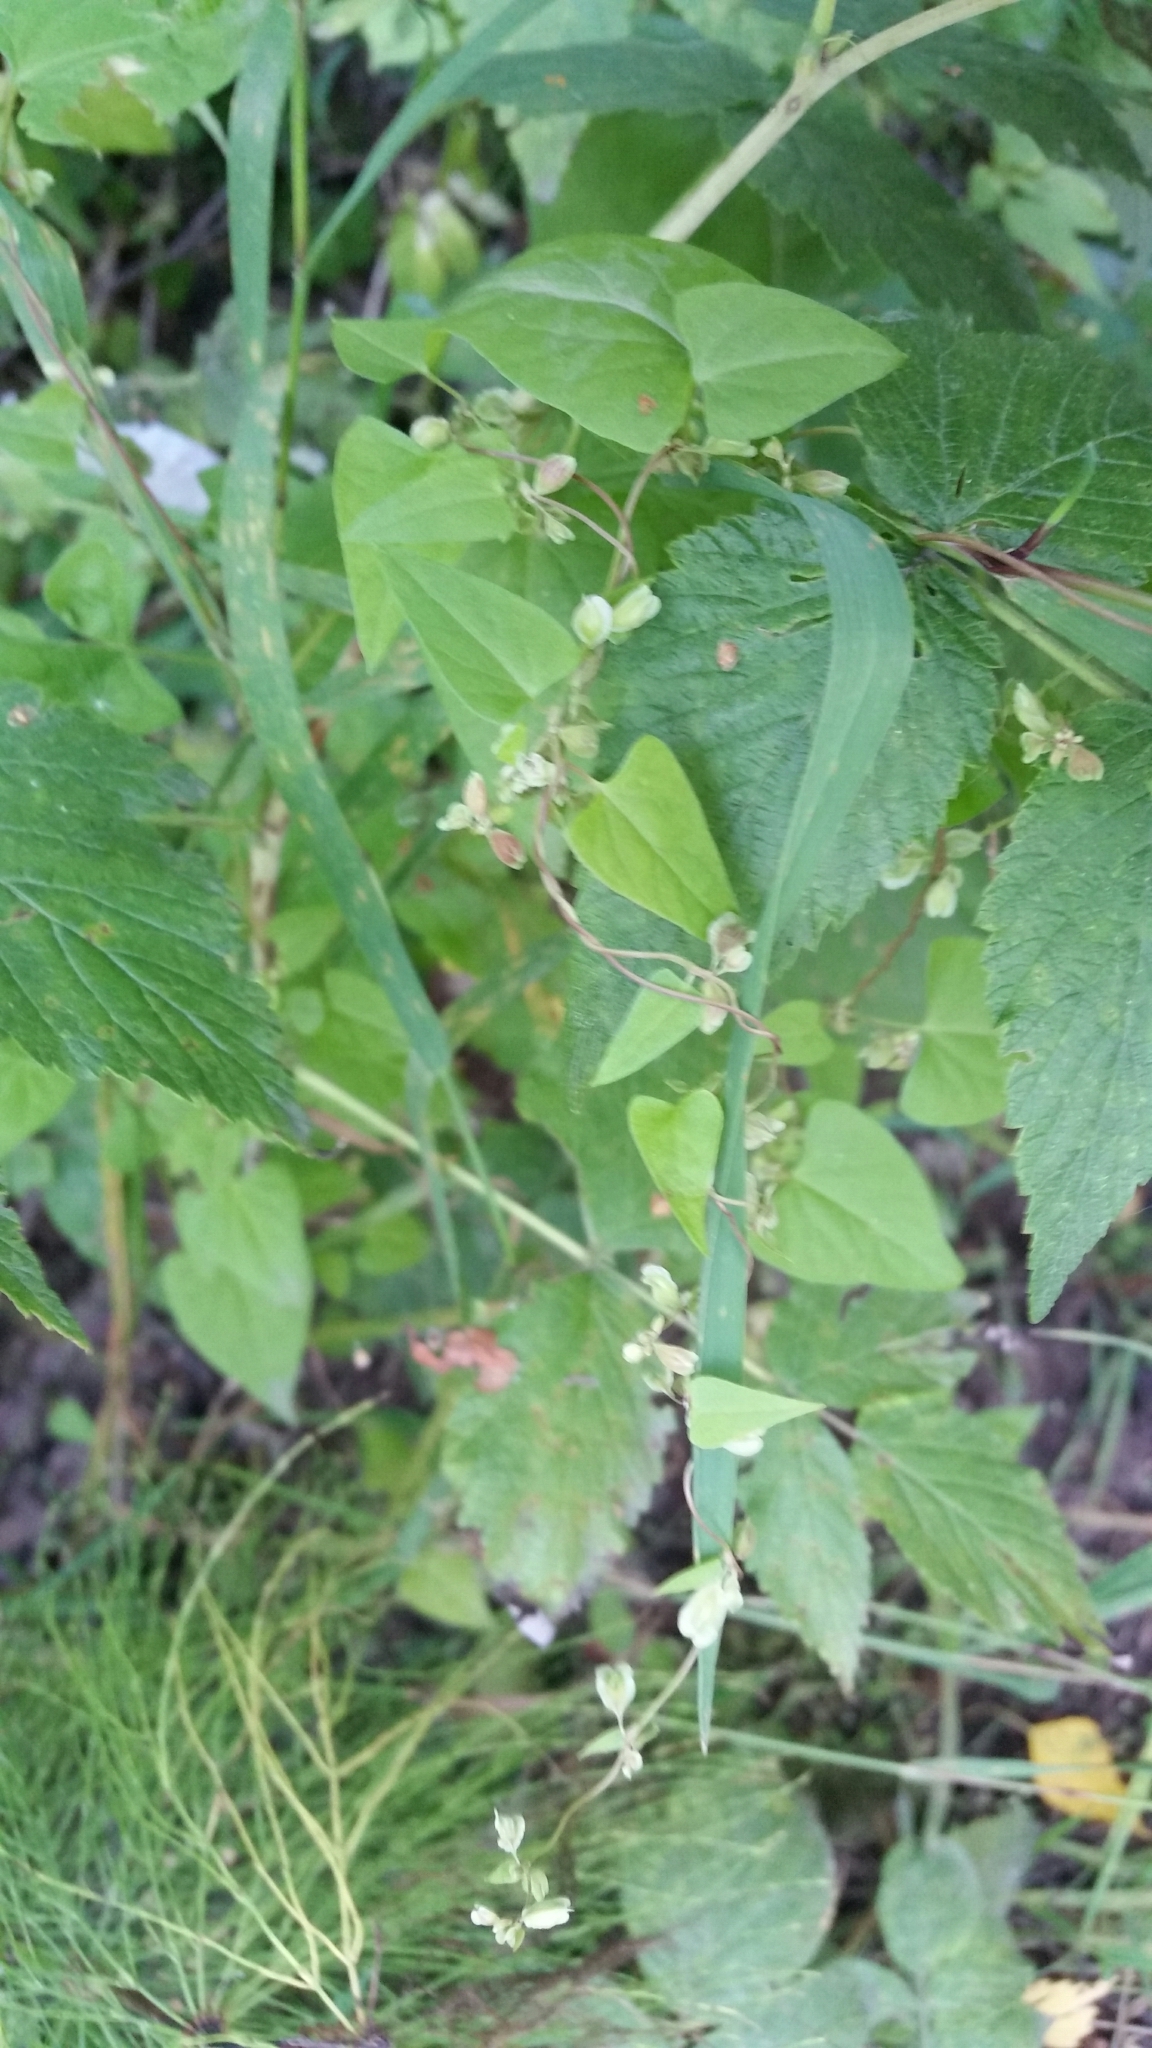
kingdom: Plantae
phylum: Tracheophyta
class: Magnoliopsida
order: Caryophyllales
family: Polygonaceae
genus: Fallopia
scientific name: Fallopia dumetorum
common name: Copse-bindweed
